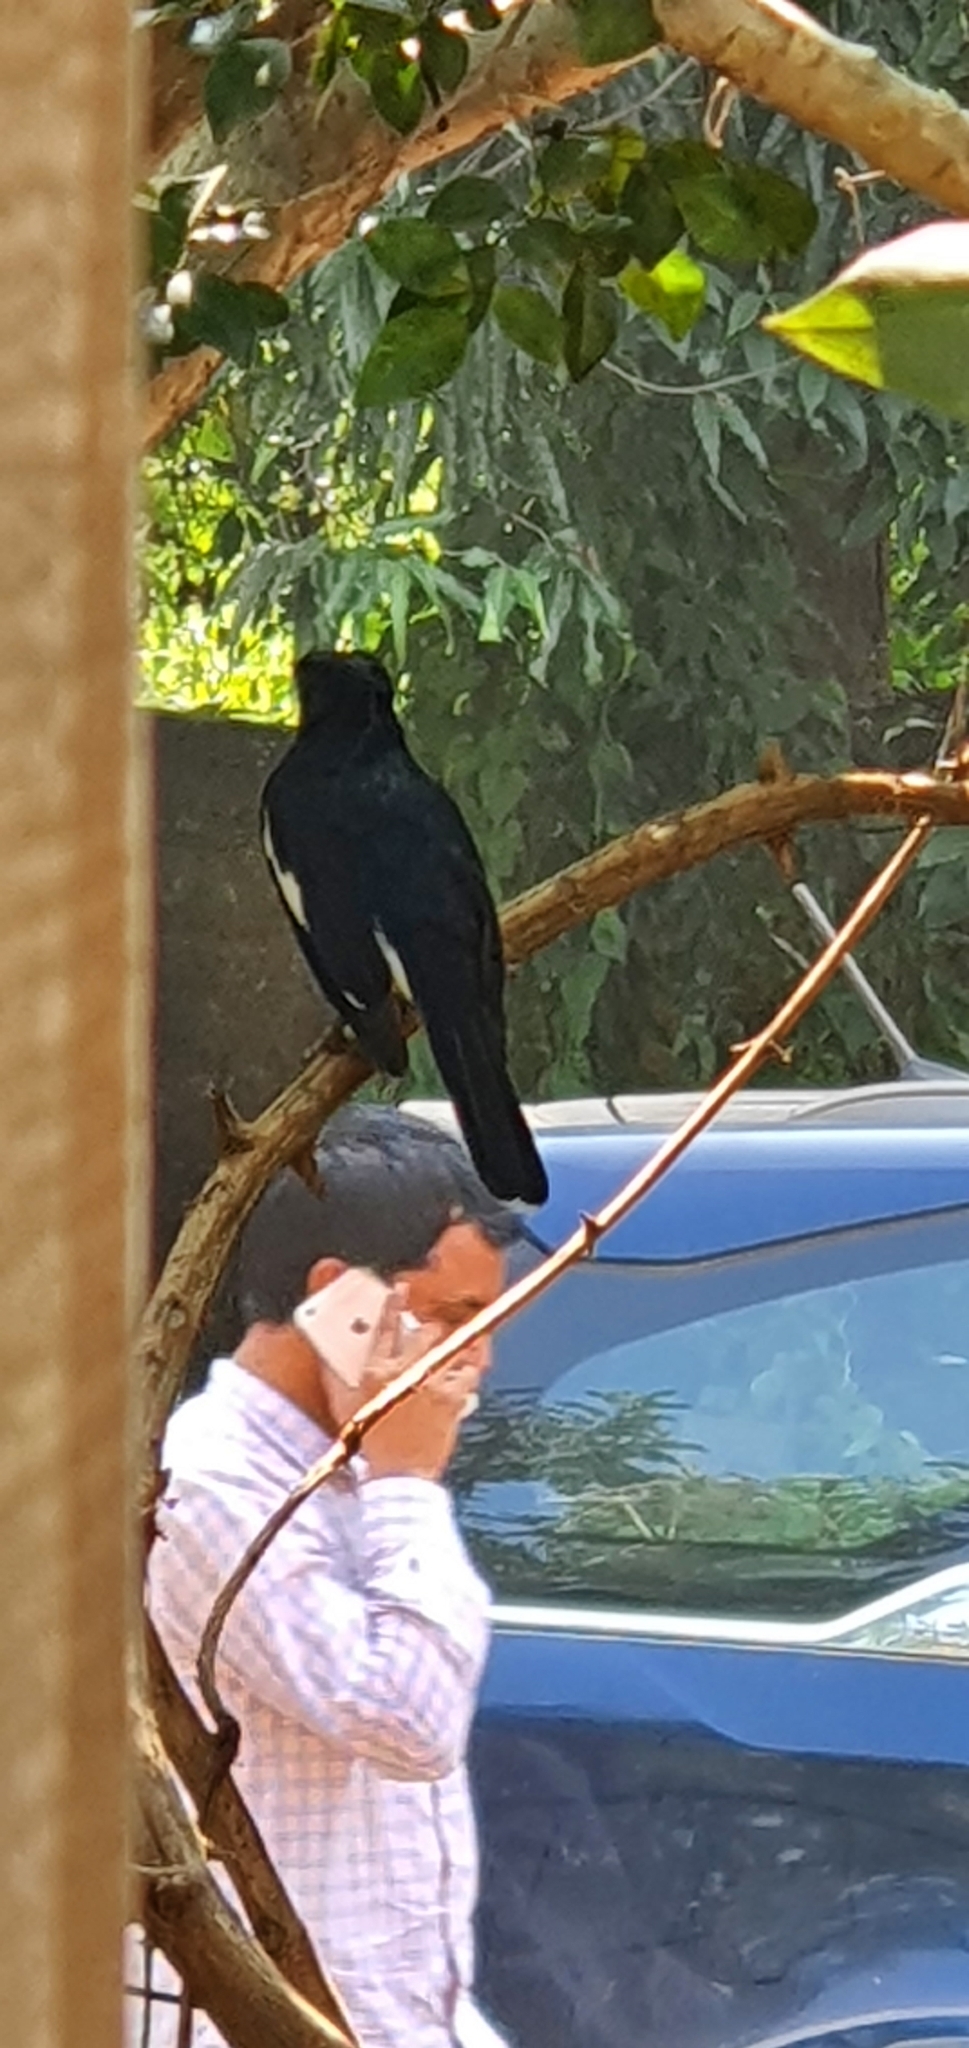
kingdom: Animalia
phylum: Chordata
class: Aves
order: Passeriformes
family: Muscicapidae
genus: Copsychus
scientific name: Copsychus saularis
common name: Oriental magpie-robin
